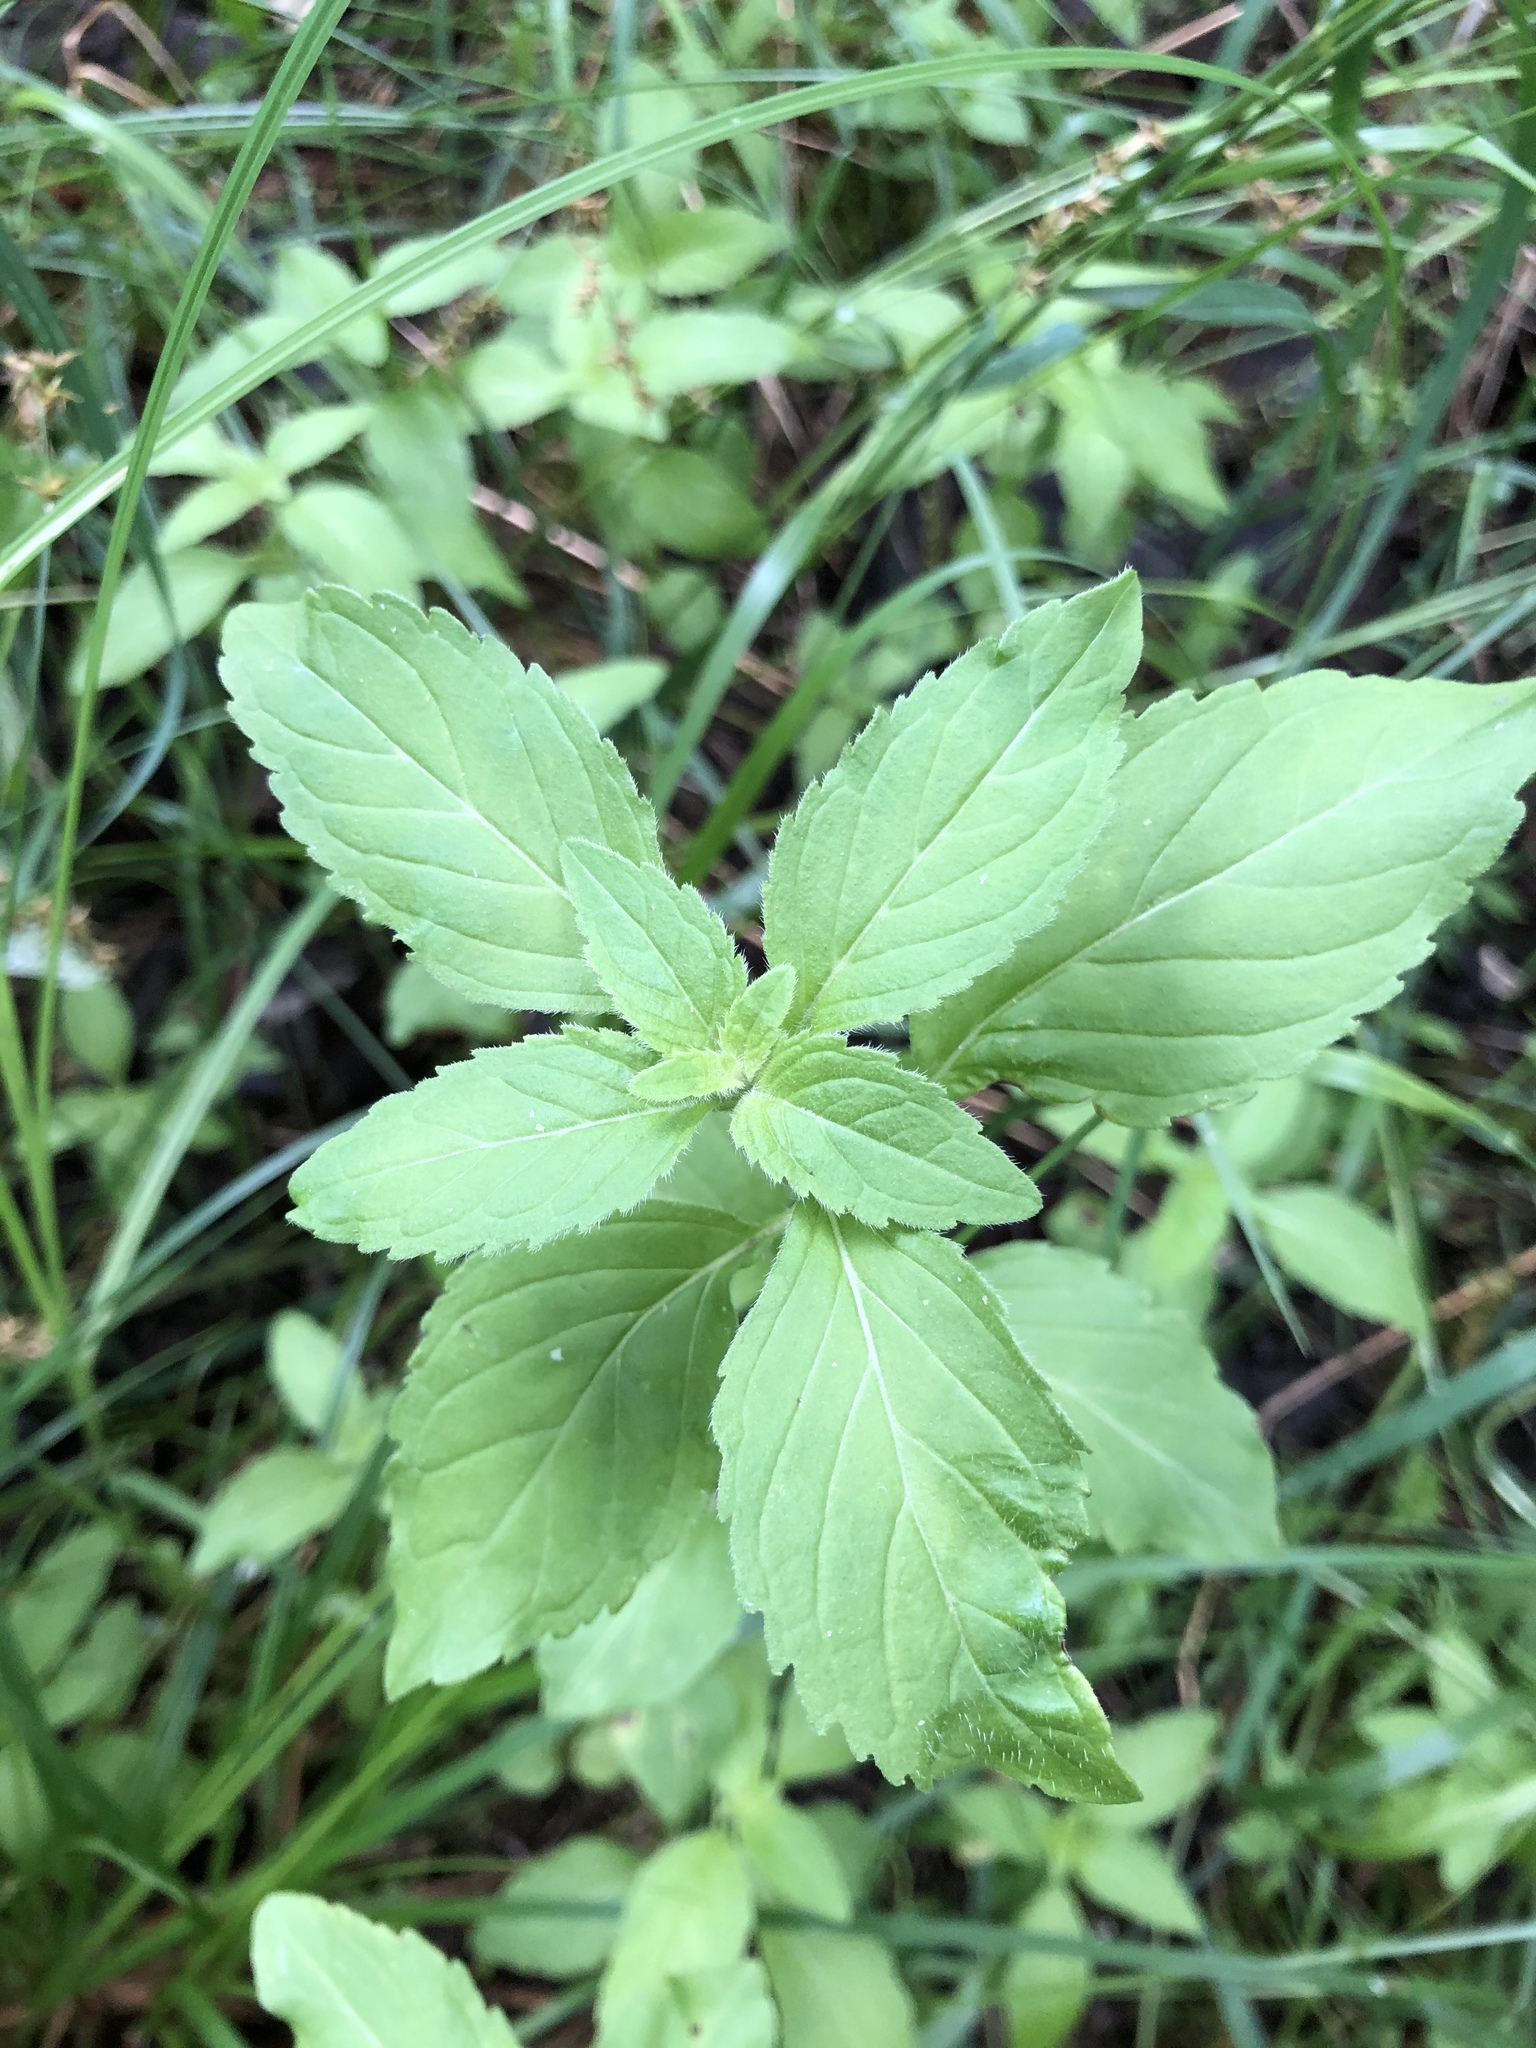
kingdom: Plantae
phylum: Tracheophyta
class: Magnoliopsida
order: Lamiales
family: Lamiaceae
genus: Mentha
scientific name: Mentha arvensis
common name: Corn mint
